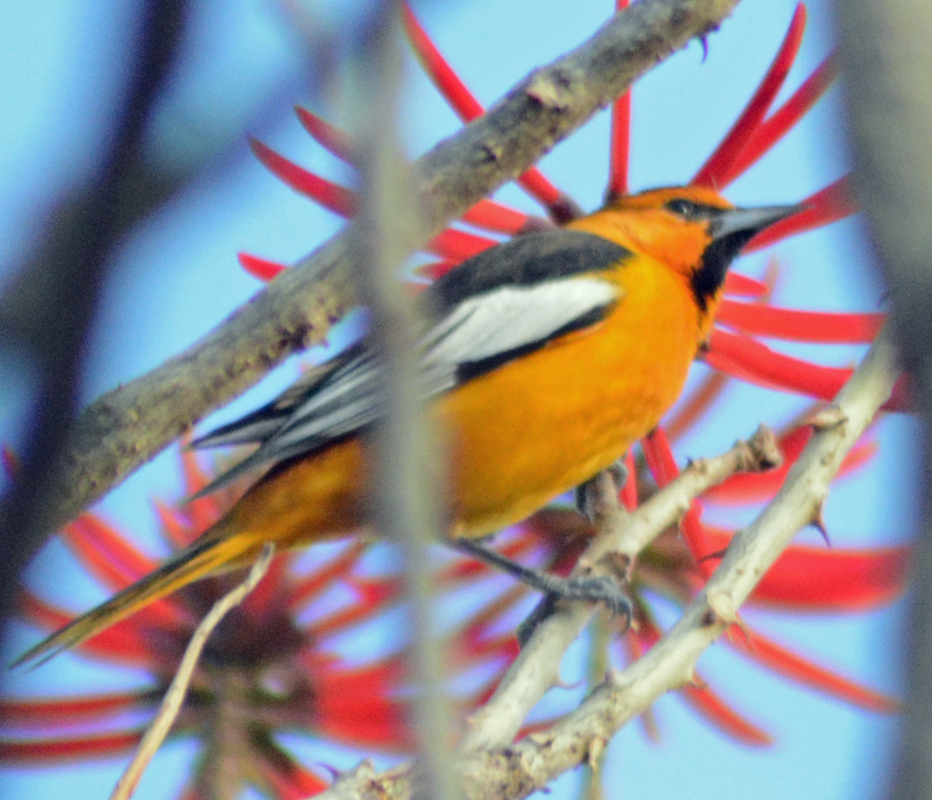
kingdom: Animalia
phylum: Chordata
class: Aves
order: Passeriformes
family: Icteridae
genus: Icterus
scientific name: Icterus bullockii
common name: Bullock's oriole
